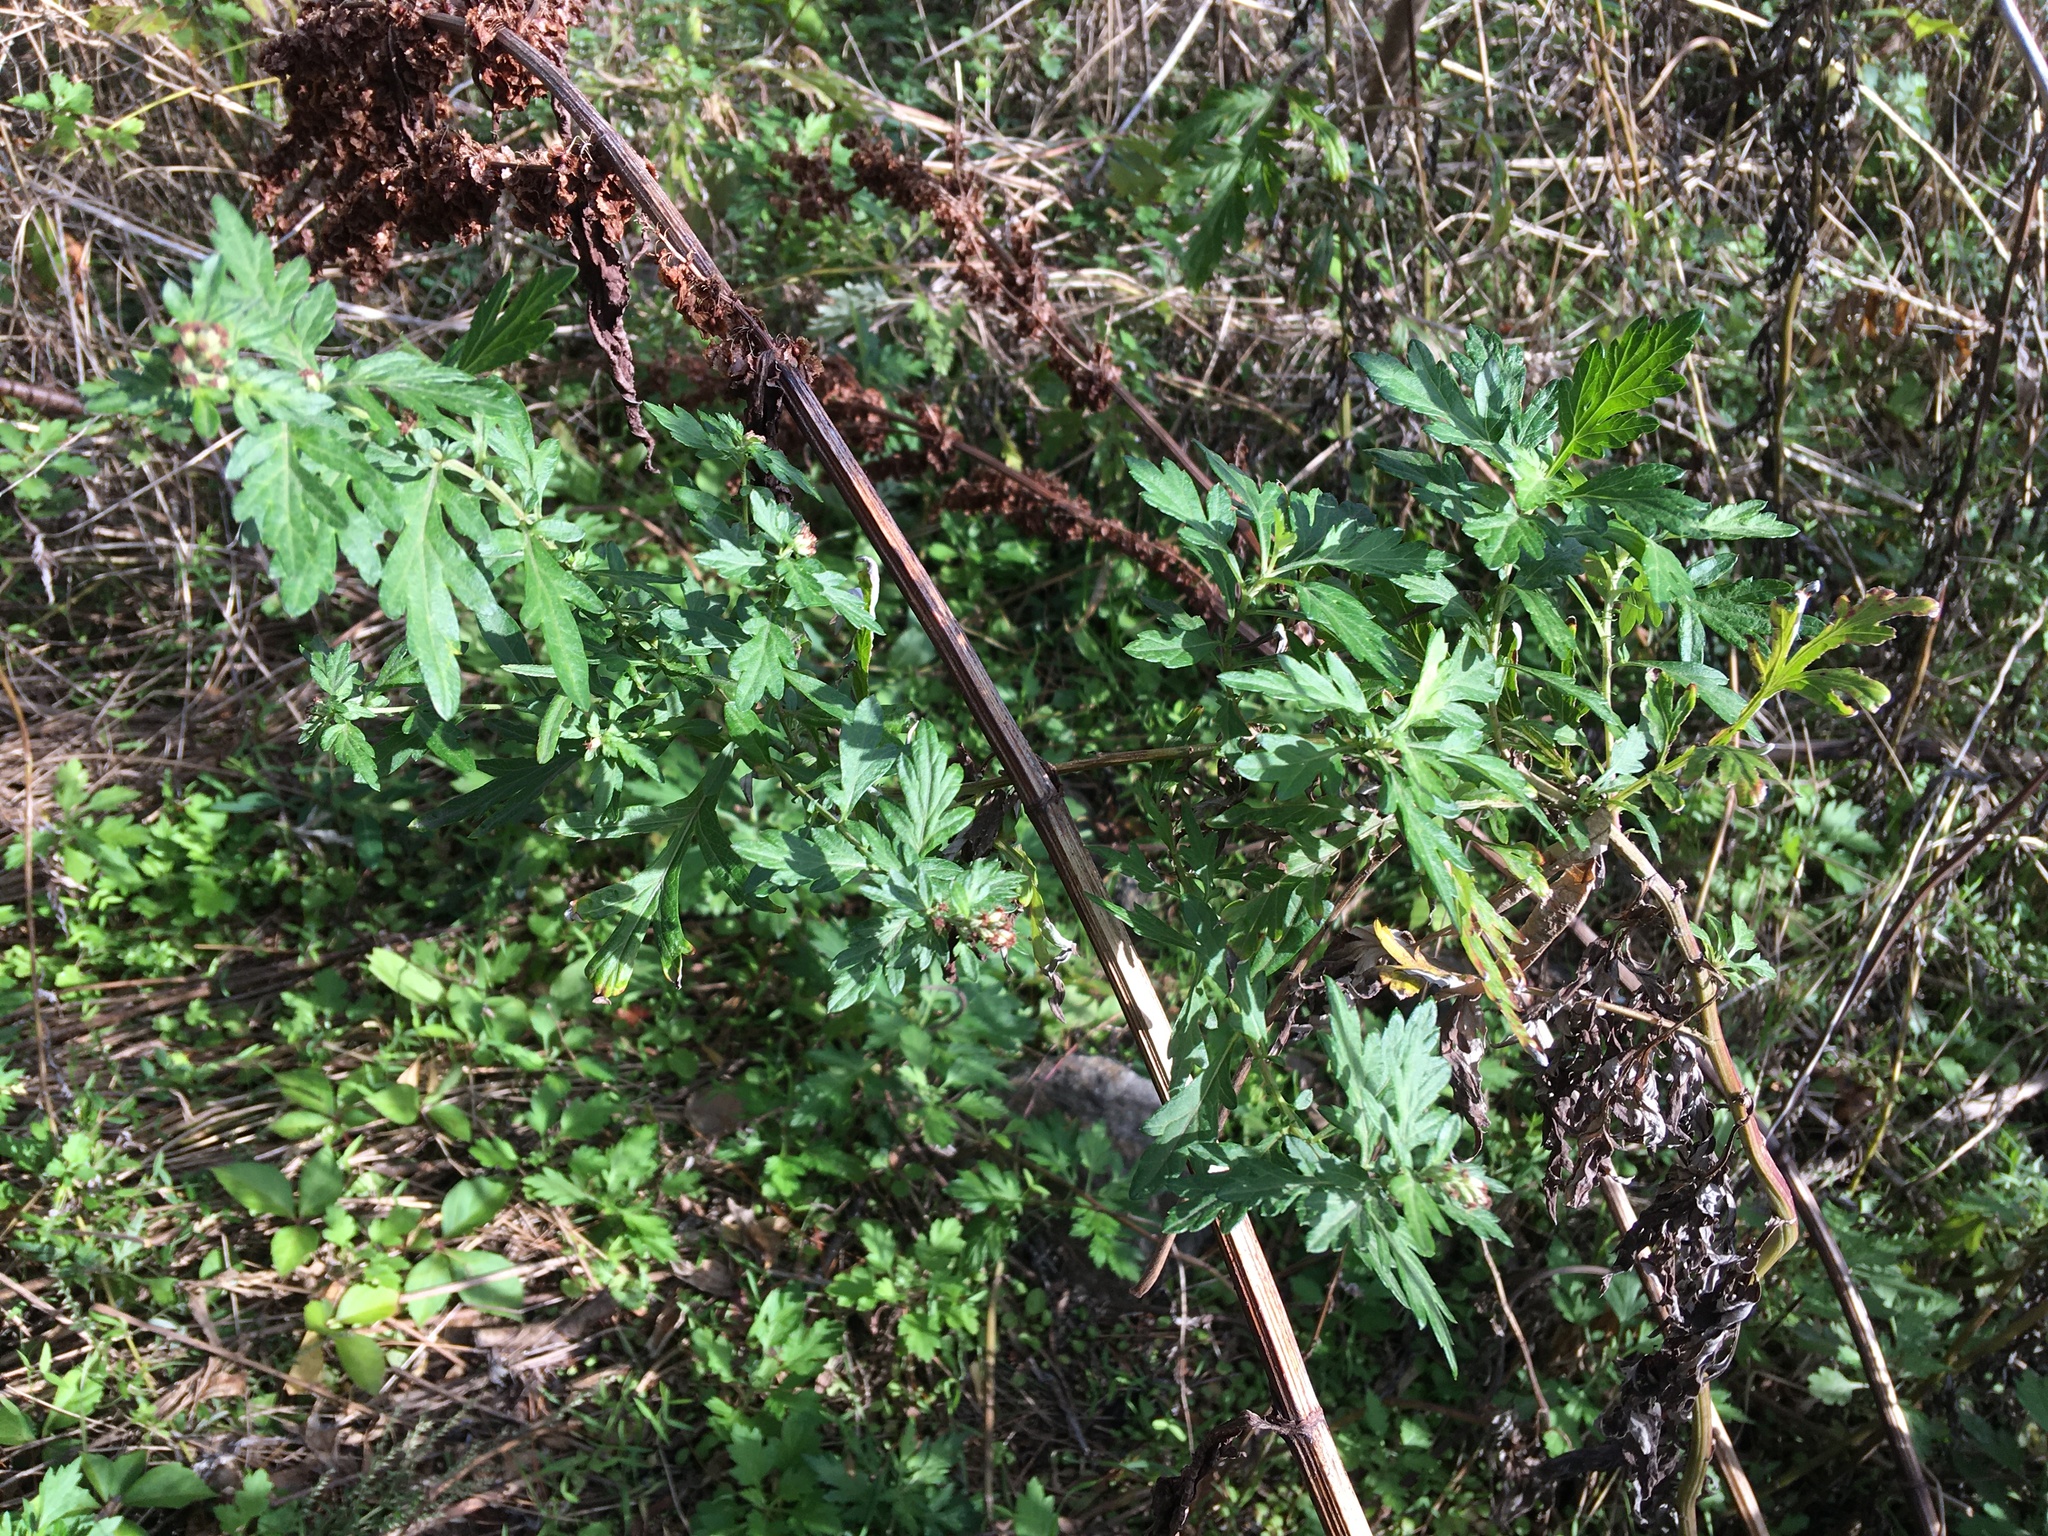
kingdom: Plantae
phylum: Tracheophyta
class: Magnoliopsida
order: Asterales
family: Asteraceae
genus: Artemisia
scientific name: Artemisia vulgaris
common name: Mugwort
